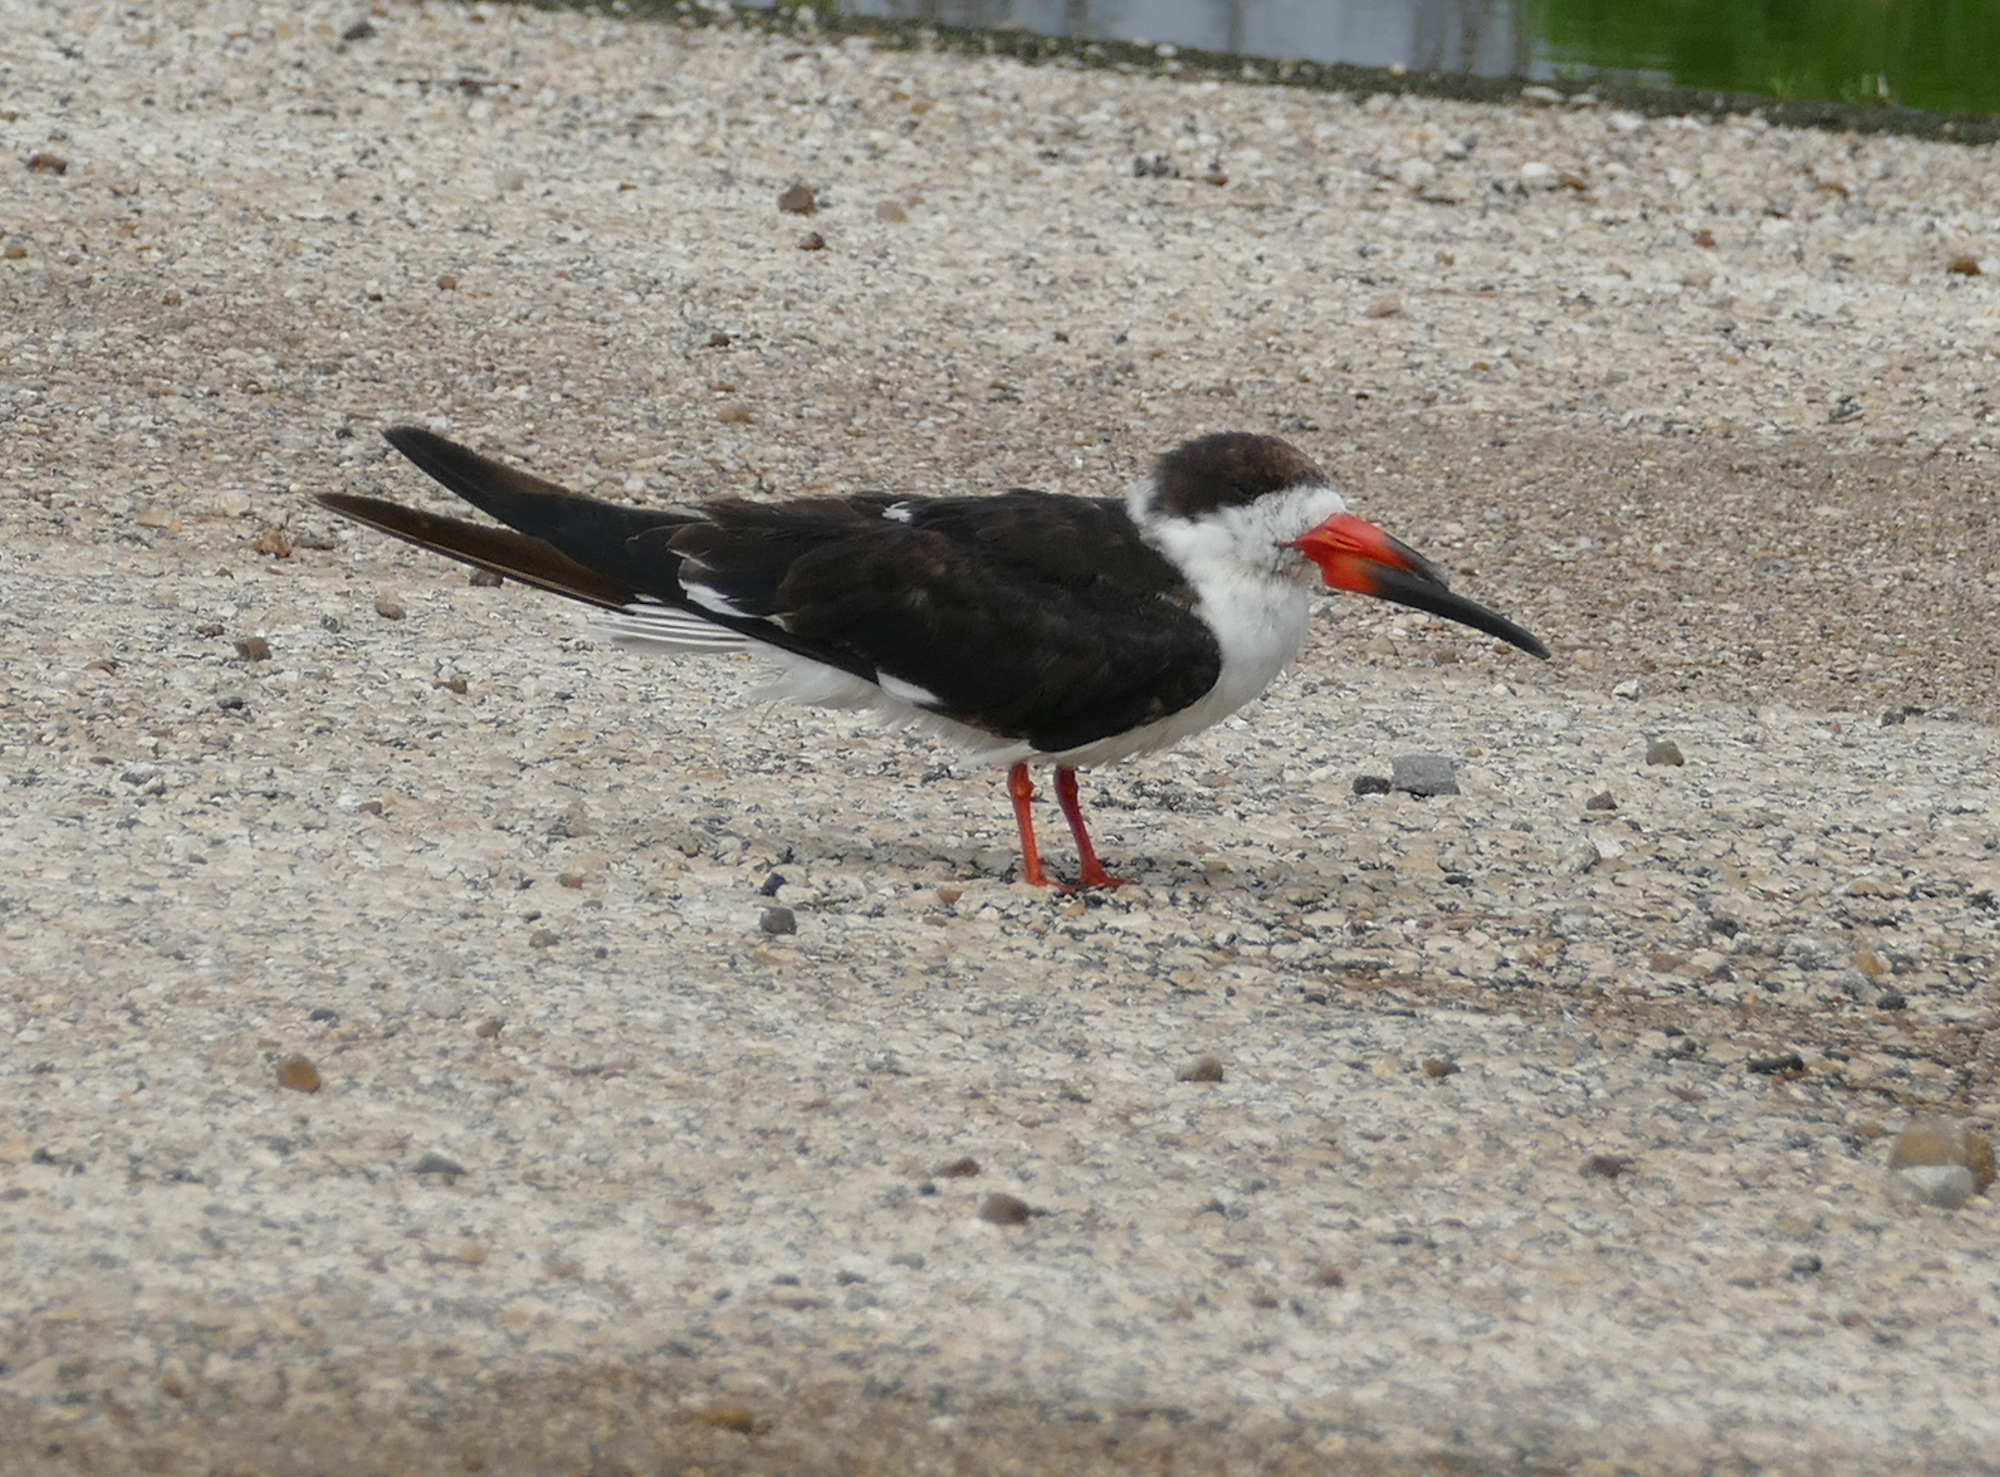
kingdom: Animalia
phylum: Chordata
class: Aves
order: Charadriiformes
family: Laridae
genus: Rynchops
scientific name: Rynchops niger
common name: Black skimmer
